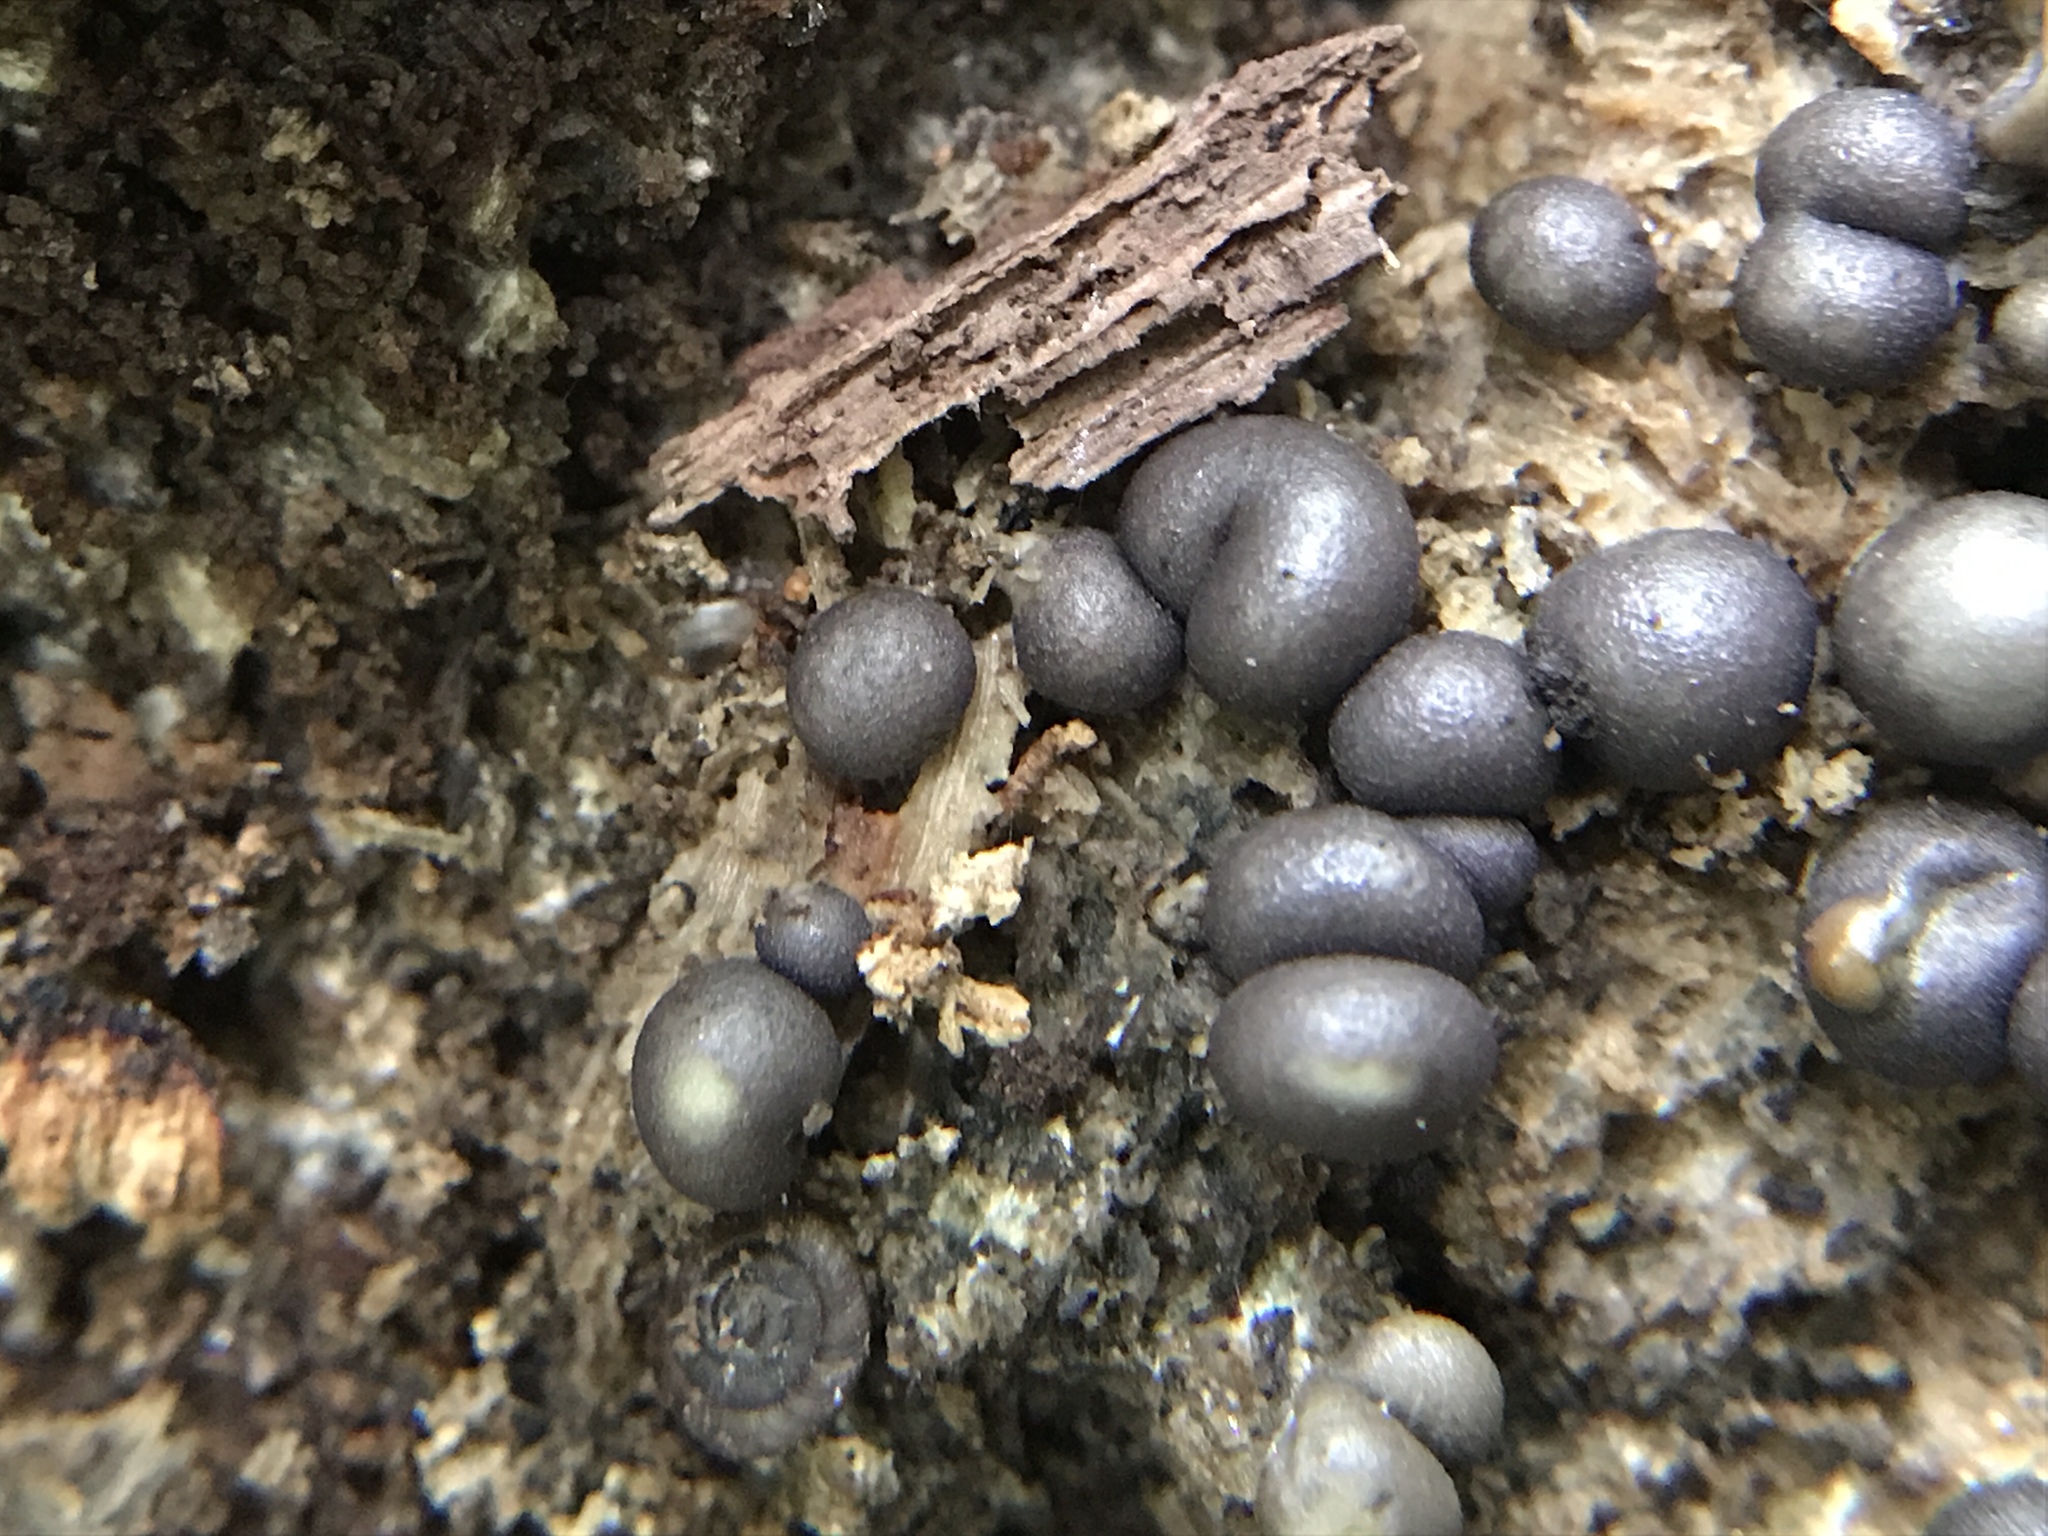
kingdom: Protozoa
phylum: Mycetozoa
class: Myxomycetes
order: Cribrariales
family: Tubiferaceae
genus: Lycogala
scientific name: Lycogala epidendrum
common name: Wolf's milk
